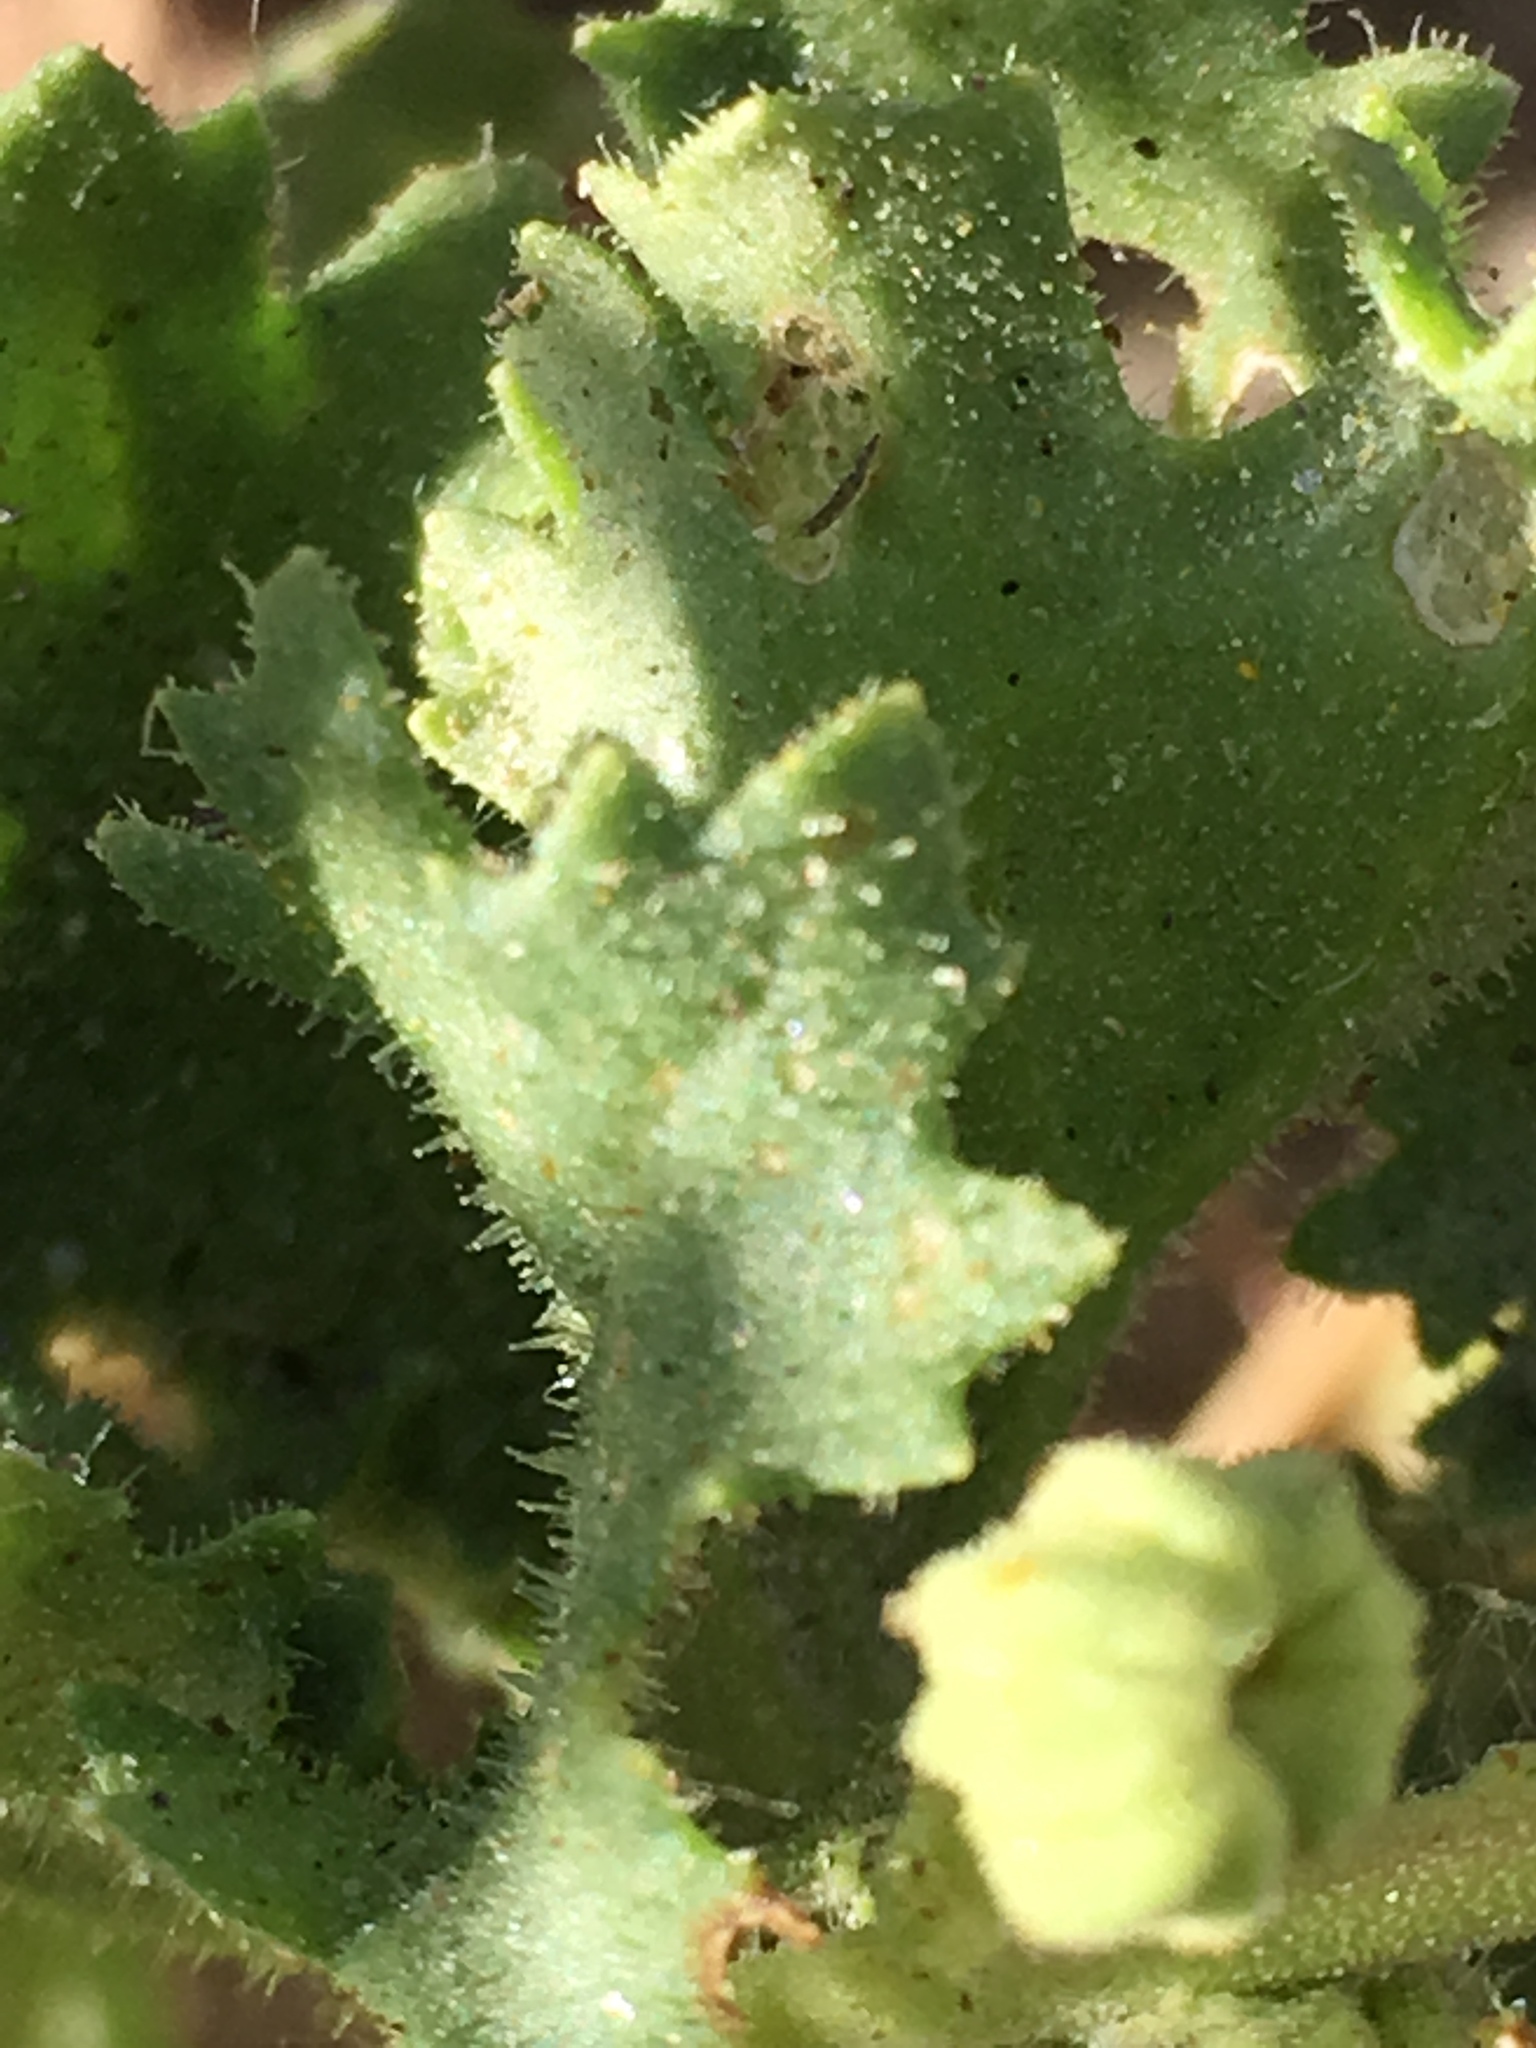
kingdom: Plantae
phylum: Tracheophyta
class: Magnoliopsida
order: Asterales
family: Asteraceae
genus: Laphamia
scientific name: Laphamia emoryi
